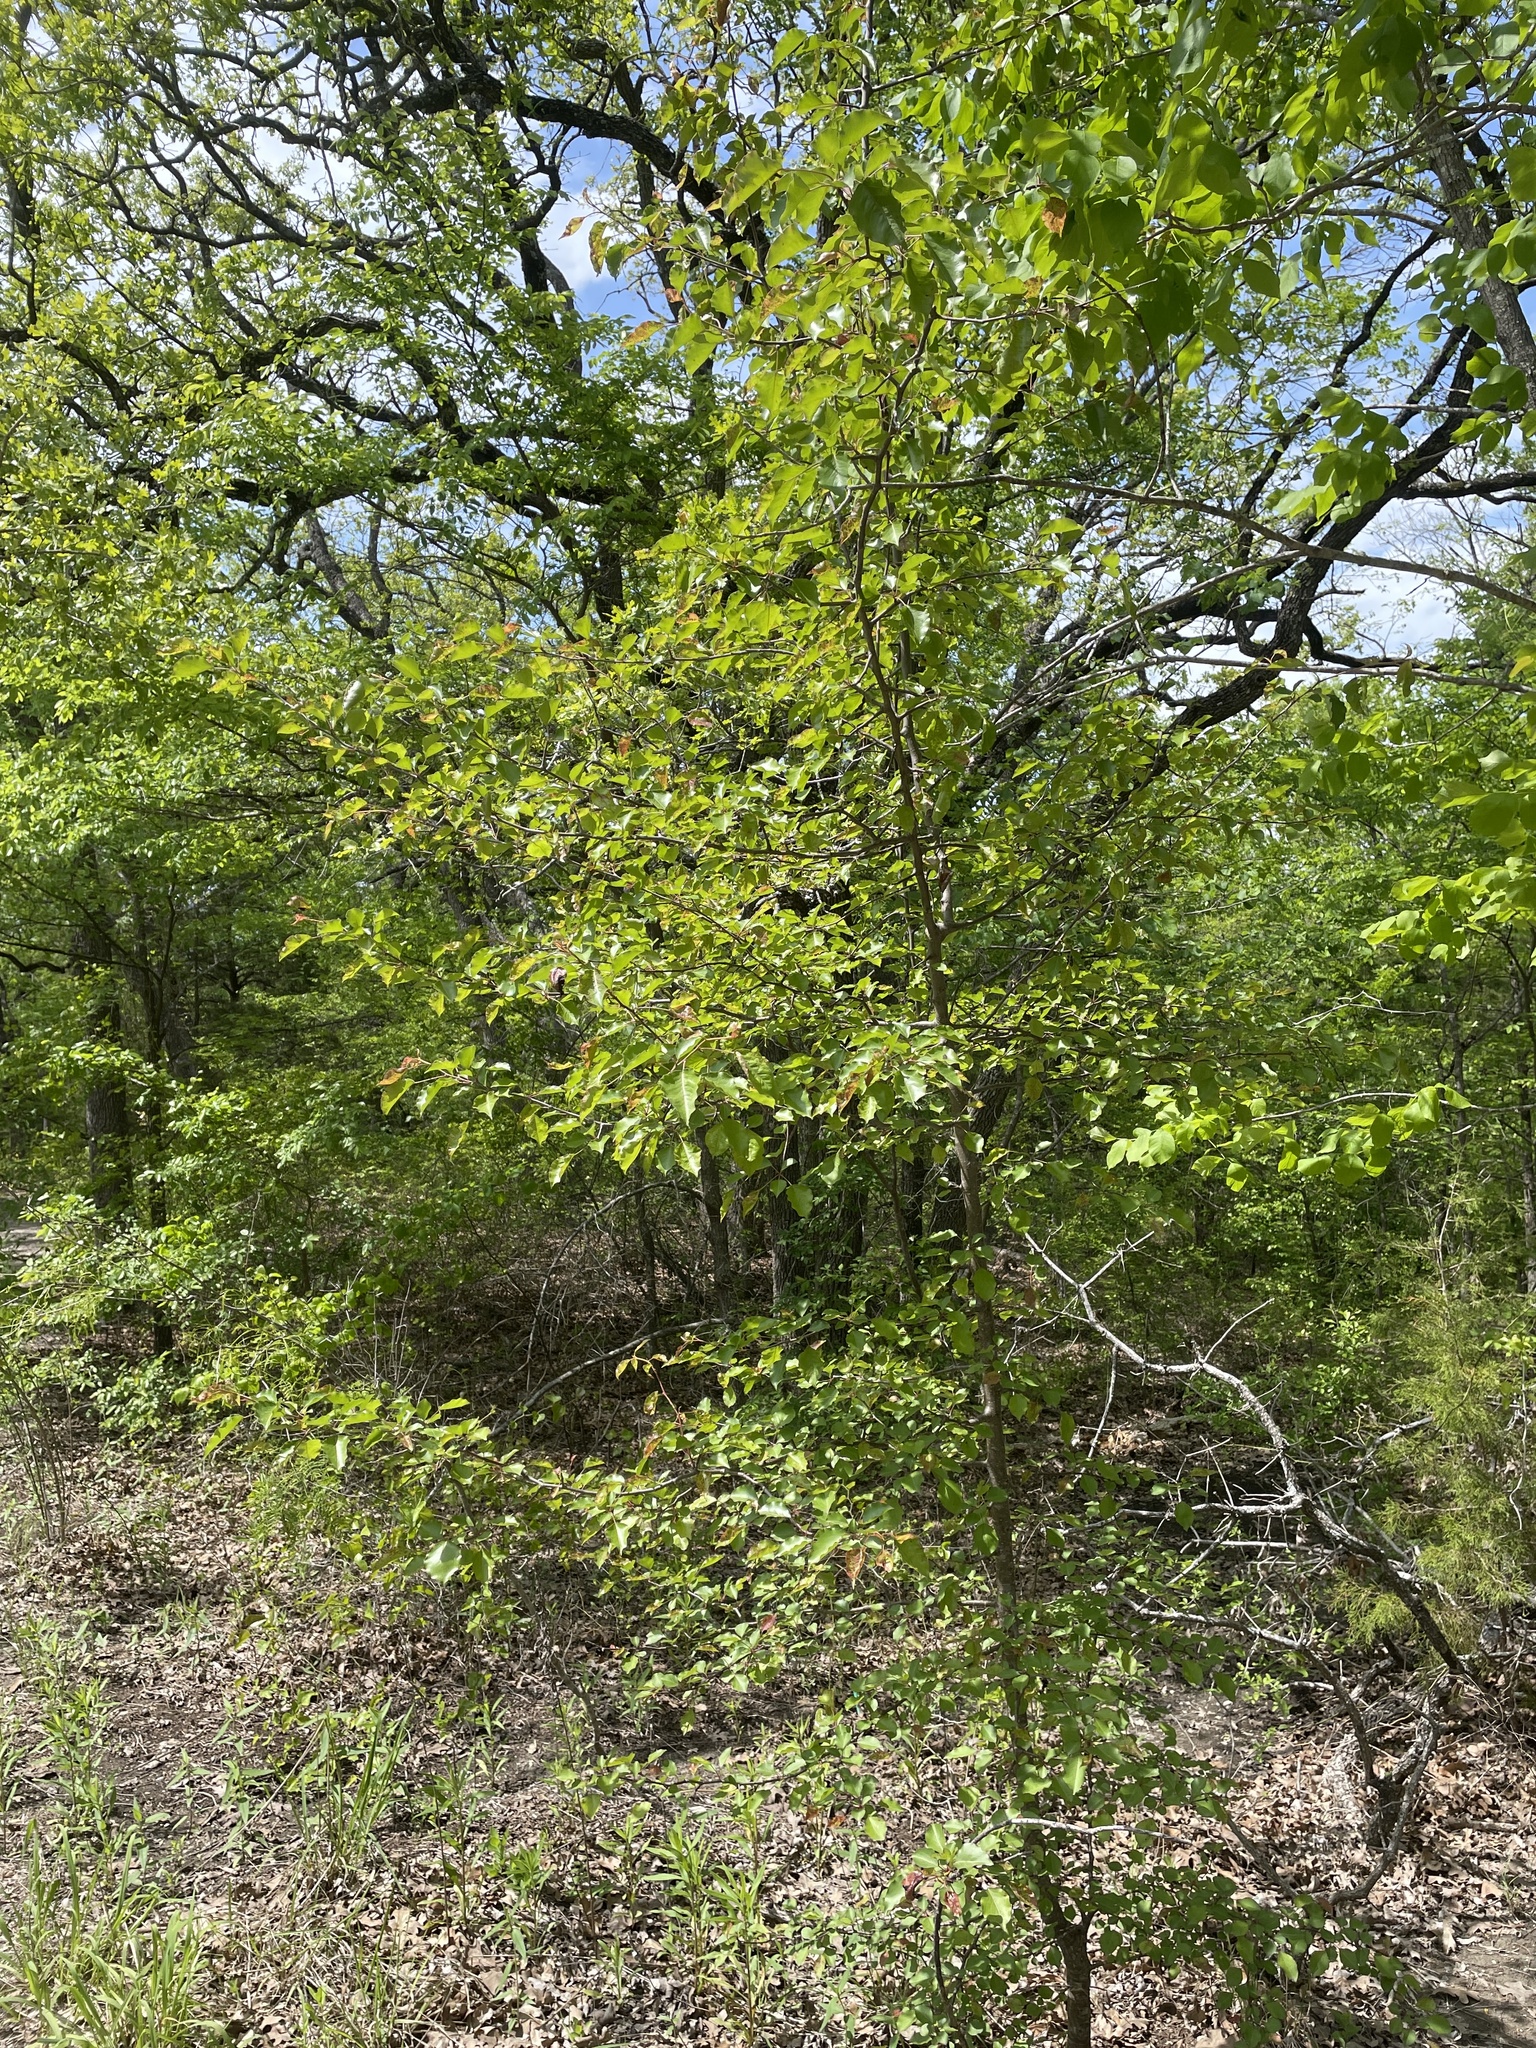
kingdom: Plantae
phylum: Tracheophyta
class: Magnoliopsida
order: Rosales
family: Rosaceae
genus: Pyrus
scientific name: Pyrus calleryana
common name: Callery pear
